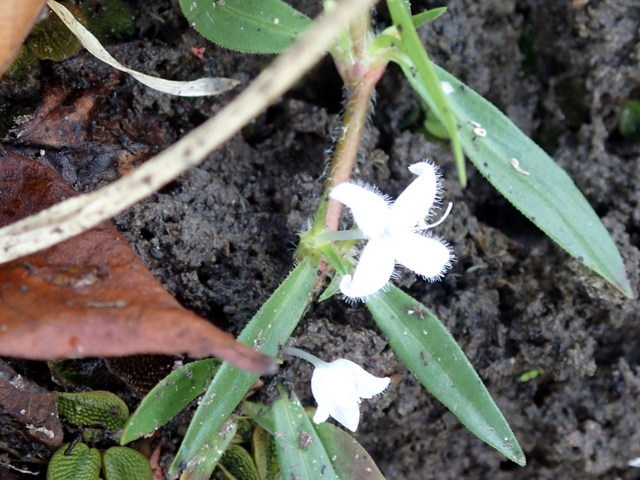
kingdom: Plantae
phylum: Tracheophyta
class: Magnoliopsida
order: Gentianales
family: Rubiaceae
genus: Diodia
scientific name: Diodia virginiana
